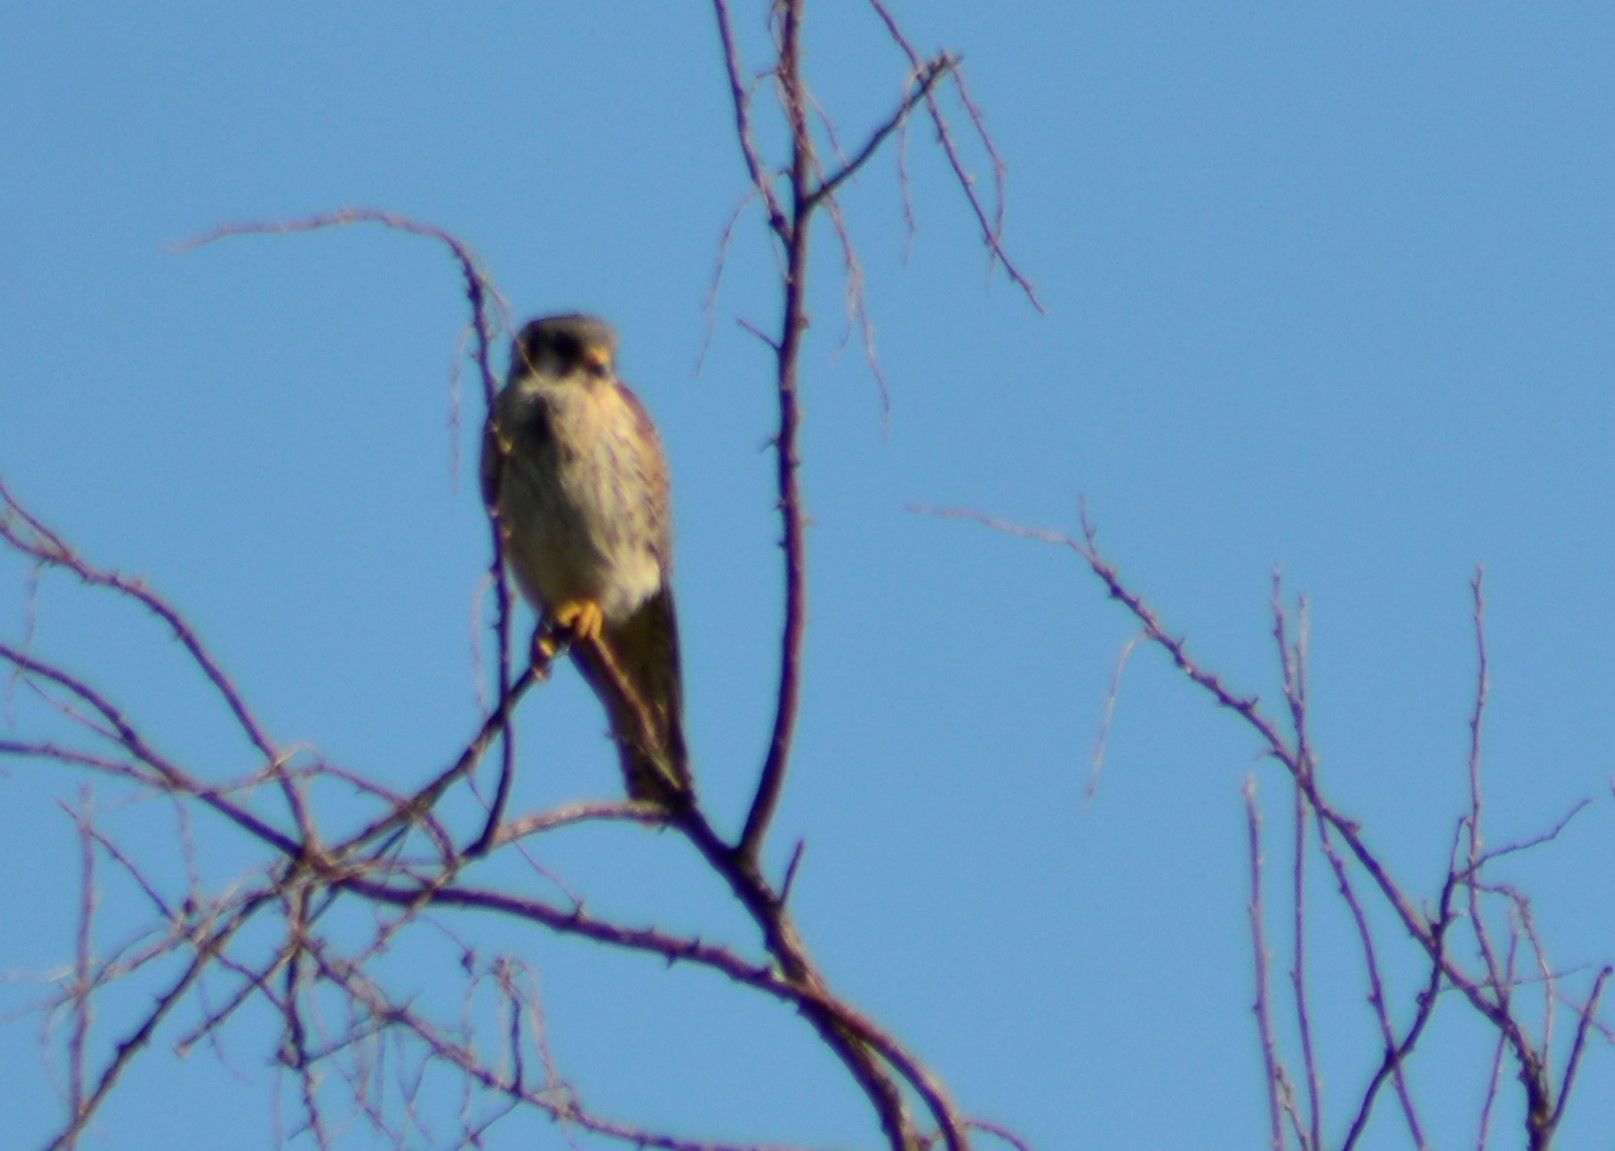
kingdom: Animalia
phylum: Chordata
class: Aves
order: Falconiformes
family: Falconidae
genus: Falco
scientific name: Falco sparverius
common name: American kestrel
